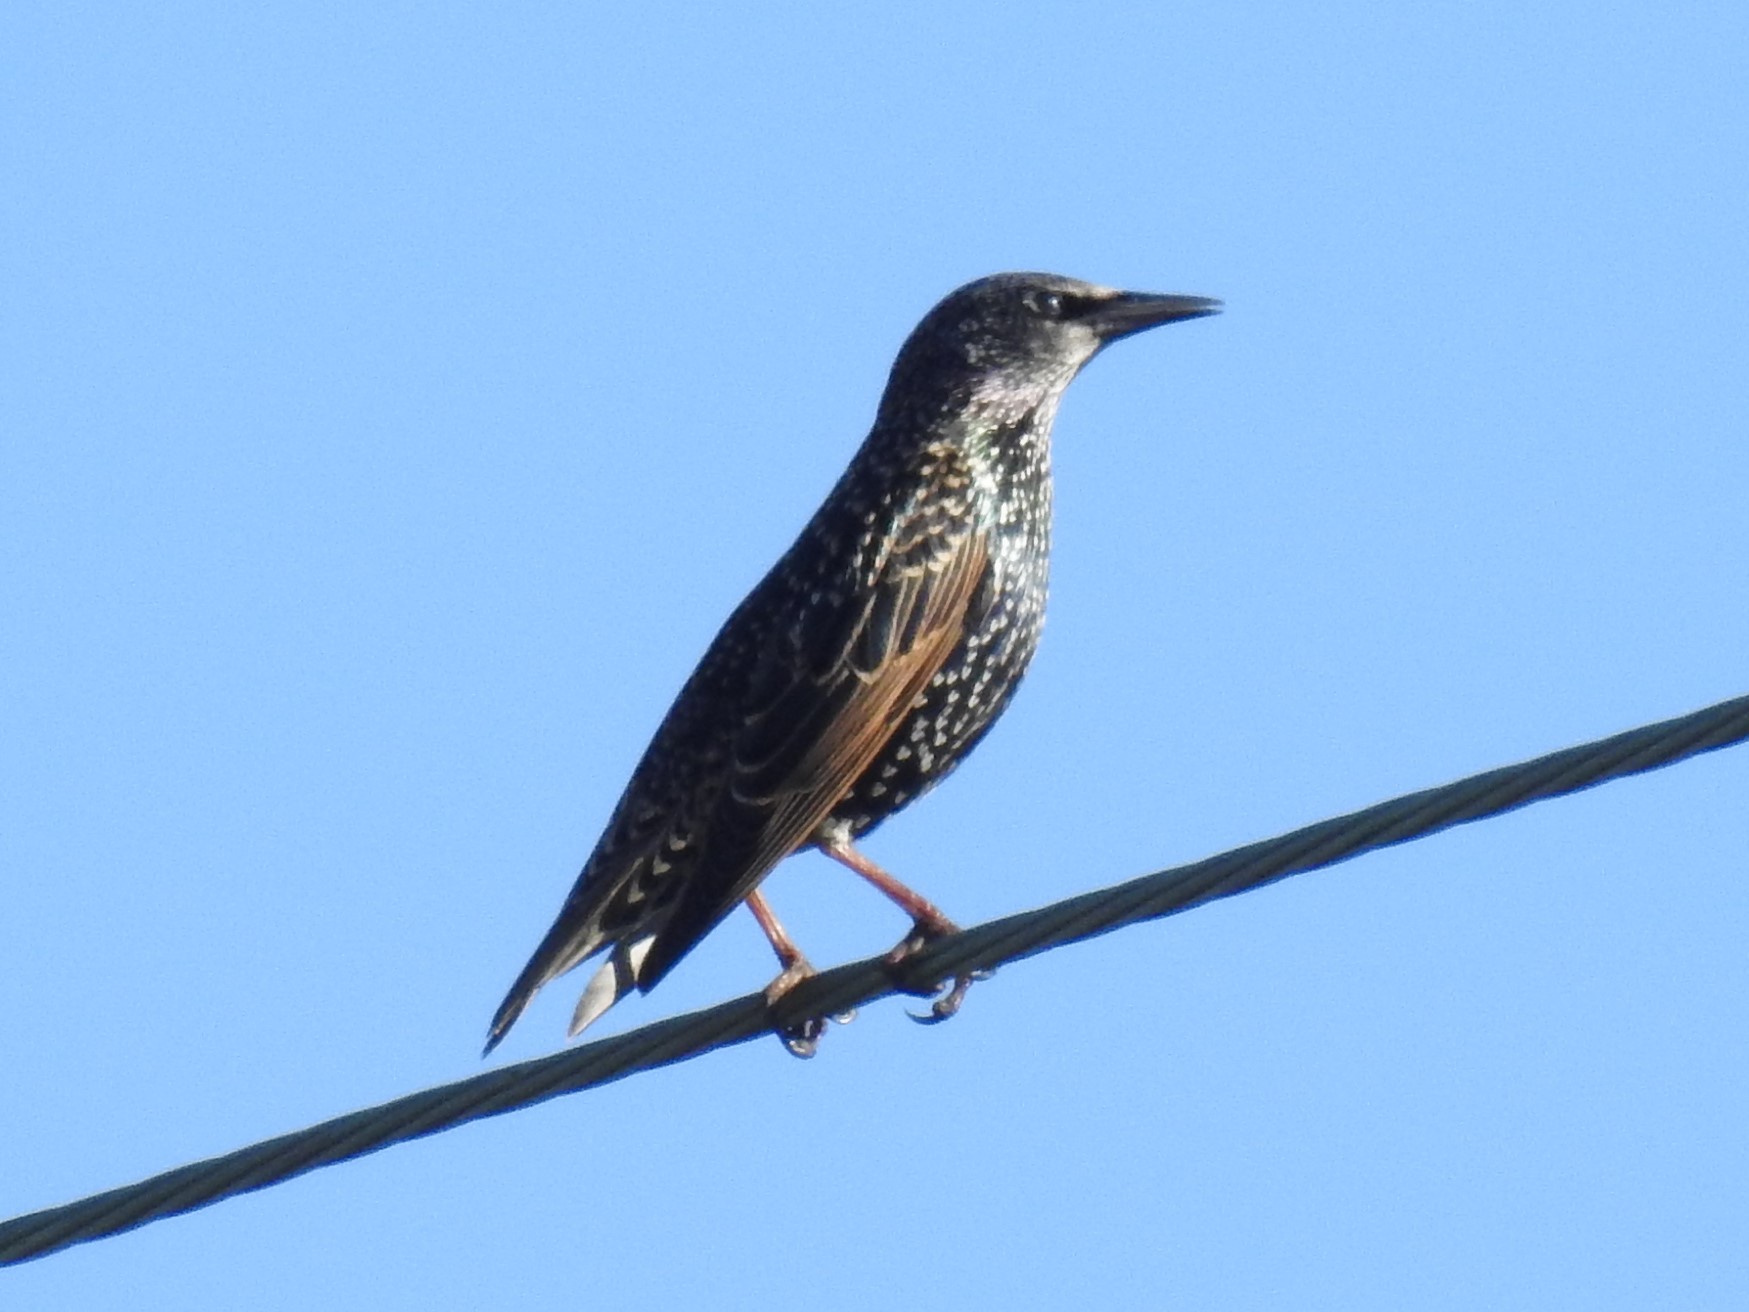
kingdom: Animalia
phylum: Chordata
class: Aves
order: Passeriformes
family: Sturnidae
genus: Sturnus
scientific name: Sturnus vulgaris
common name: Common starling
